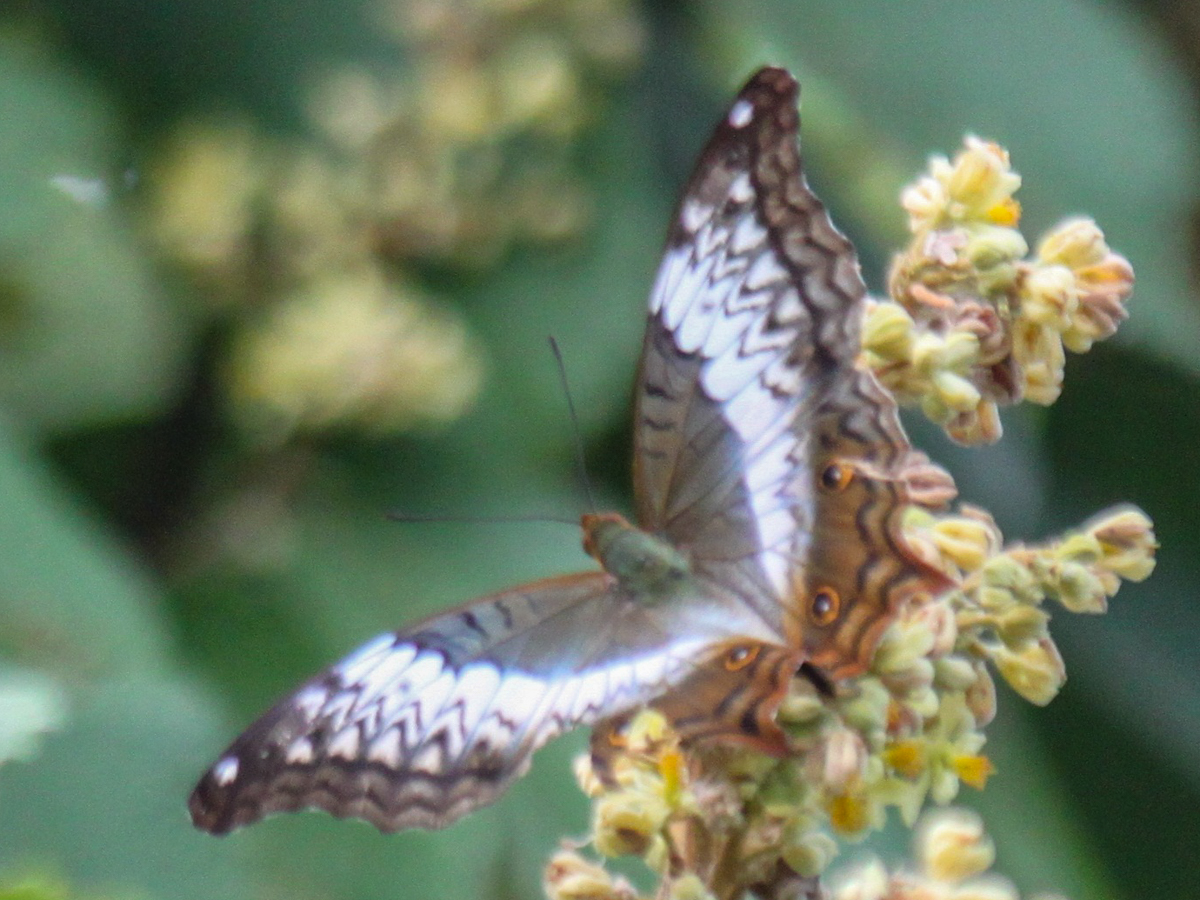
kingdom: Animalia
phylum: Arthropoda
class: Insecta
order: Lepidoptera
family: Nymphalidae
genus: Vindula
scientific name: Vindula erota
